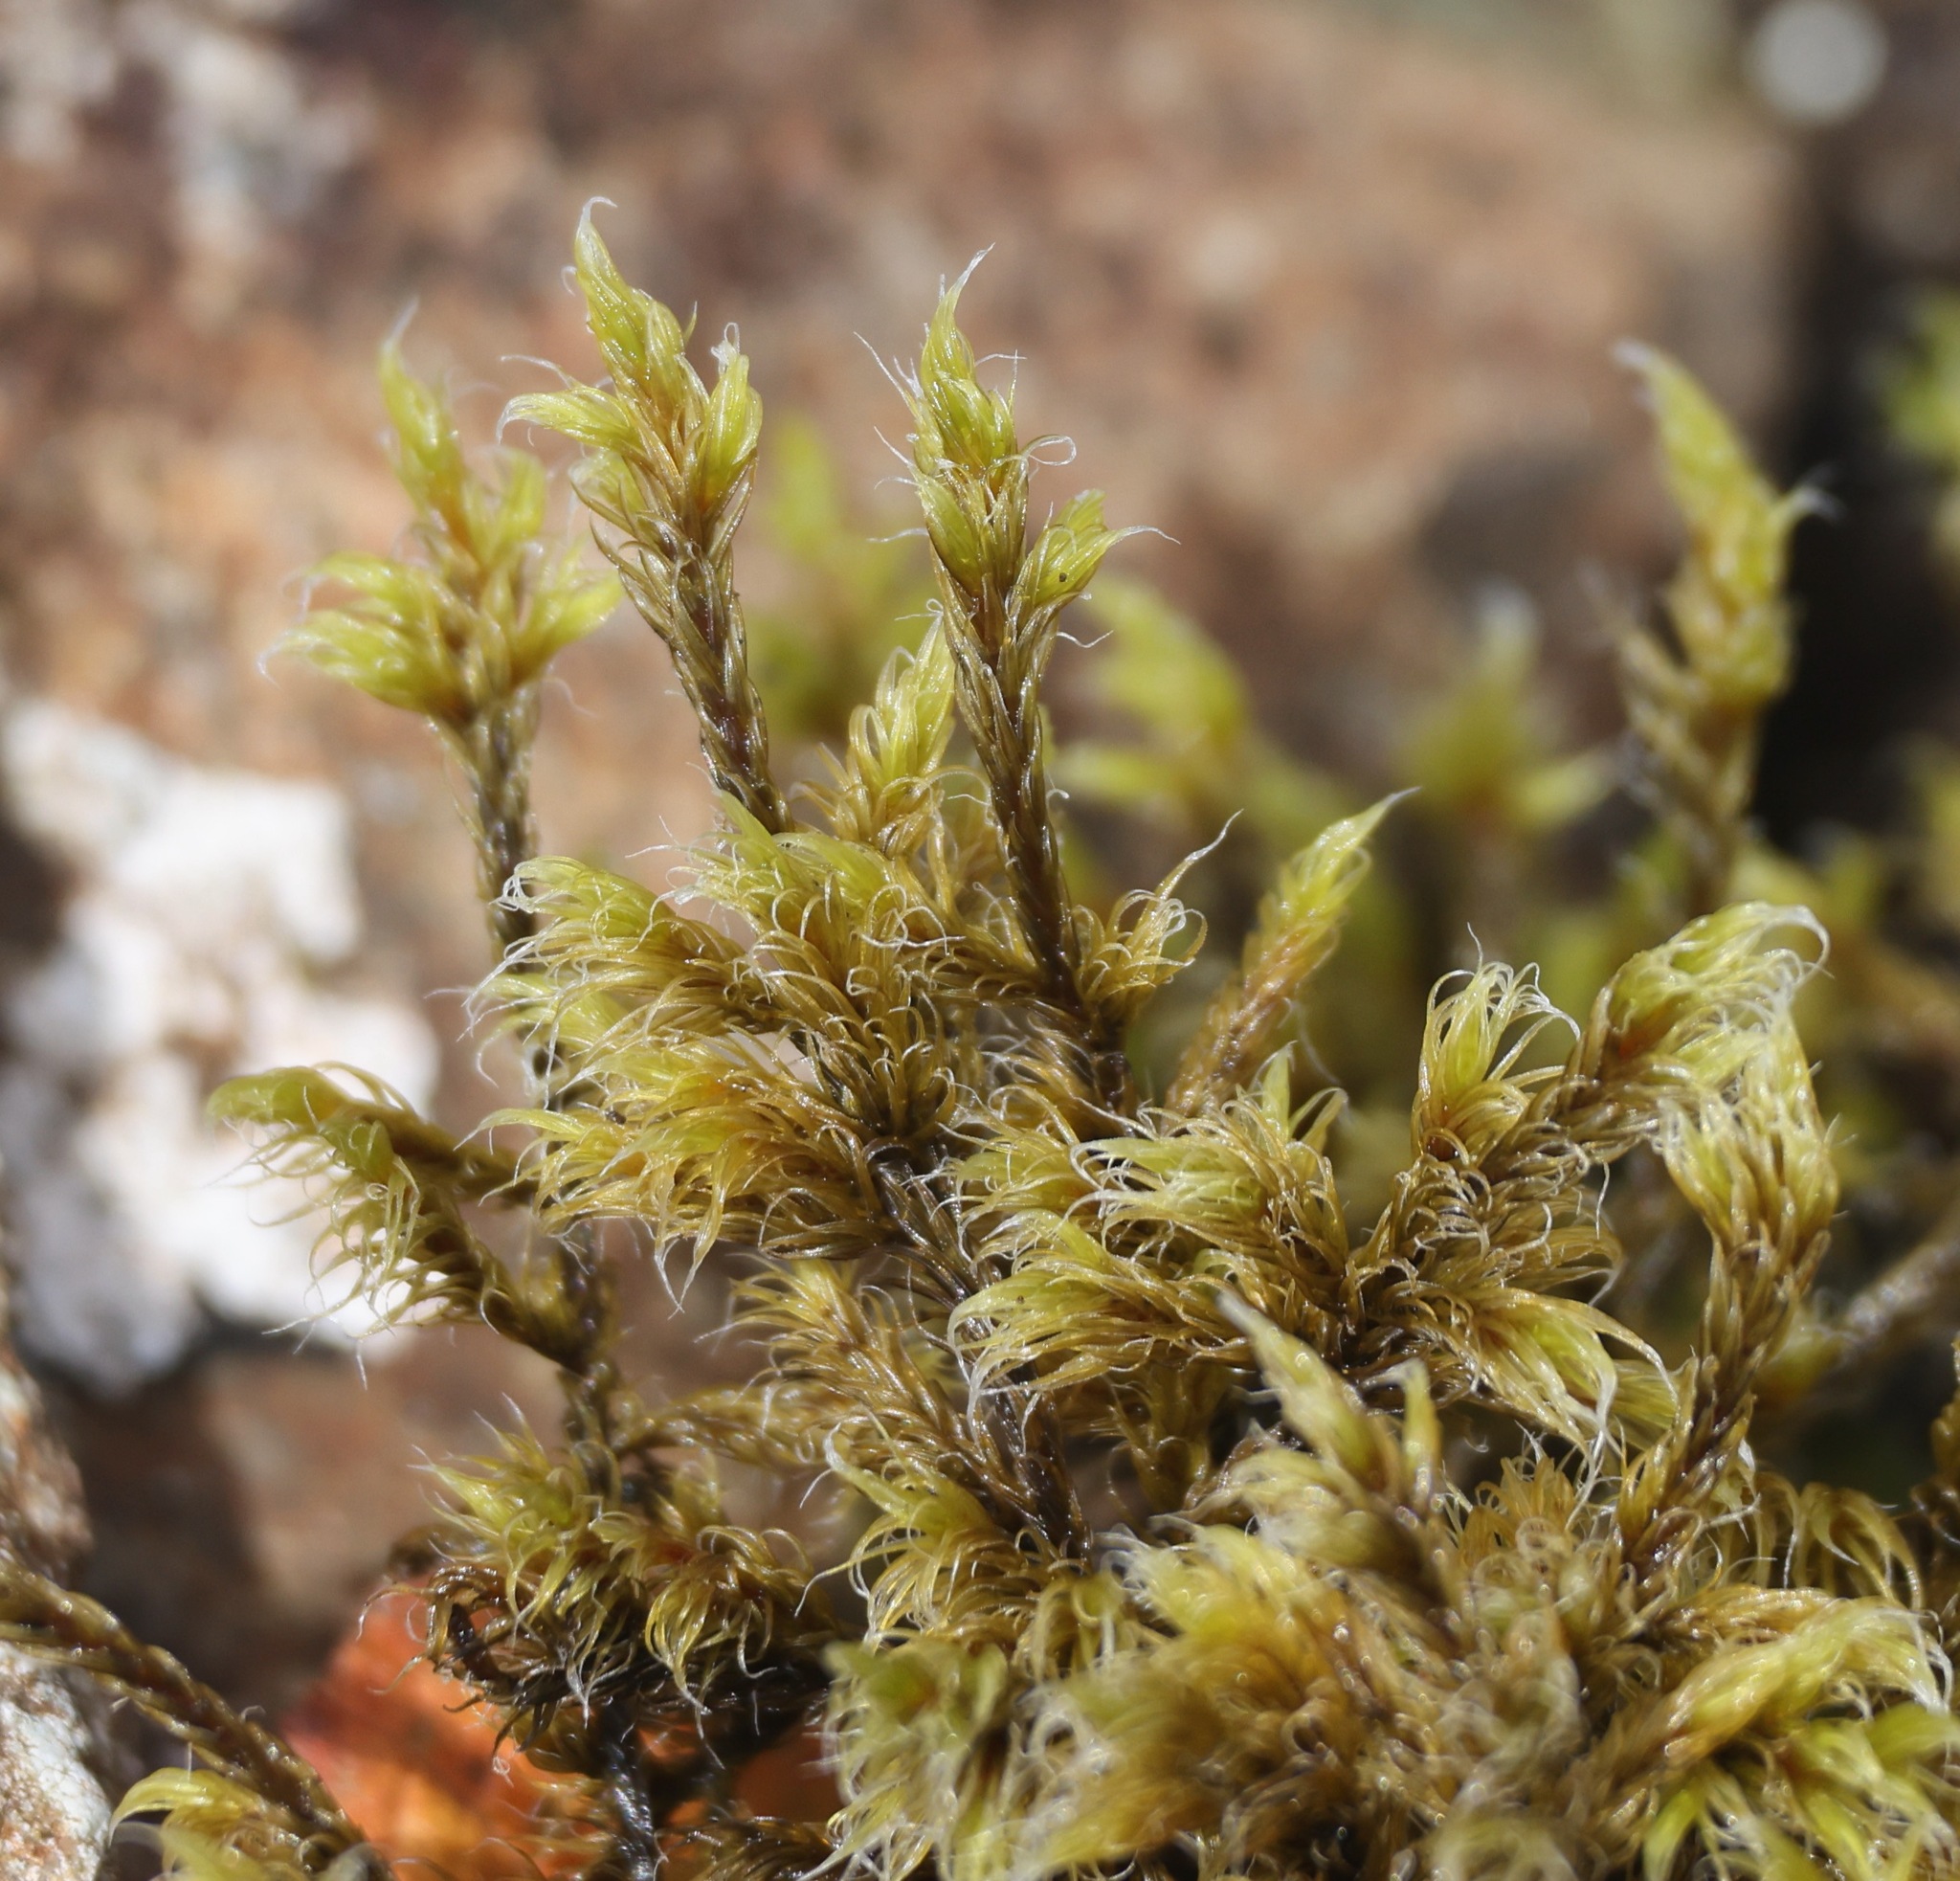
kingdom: Plantae
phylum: Bryophyta
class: Bryopsida
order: Grimmiales
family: Grimmiaceae
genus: Racomitrium
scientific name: Racomitrium lanuginosum
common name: Hoary rock moss
